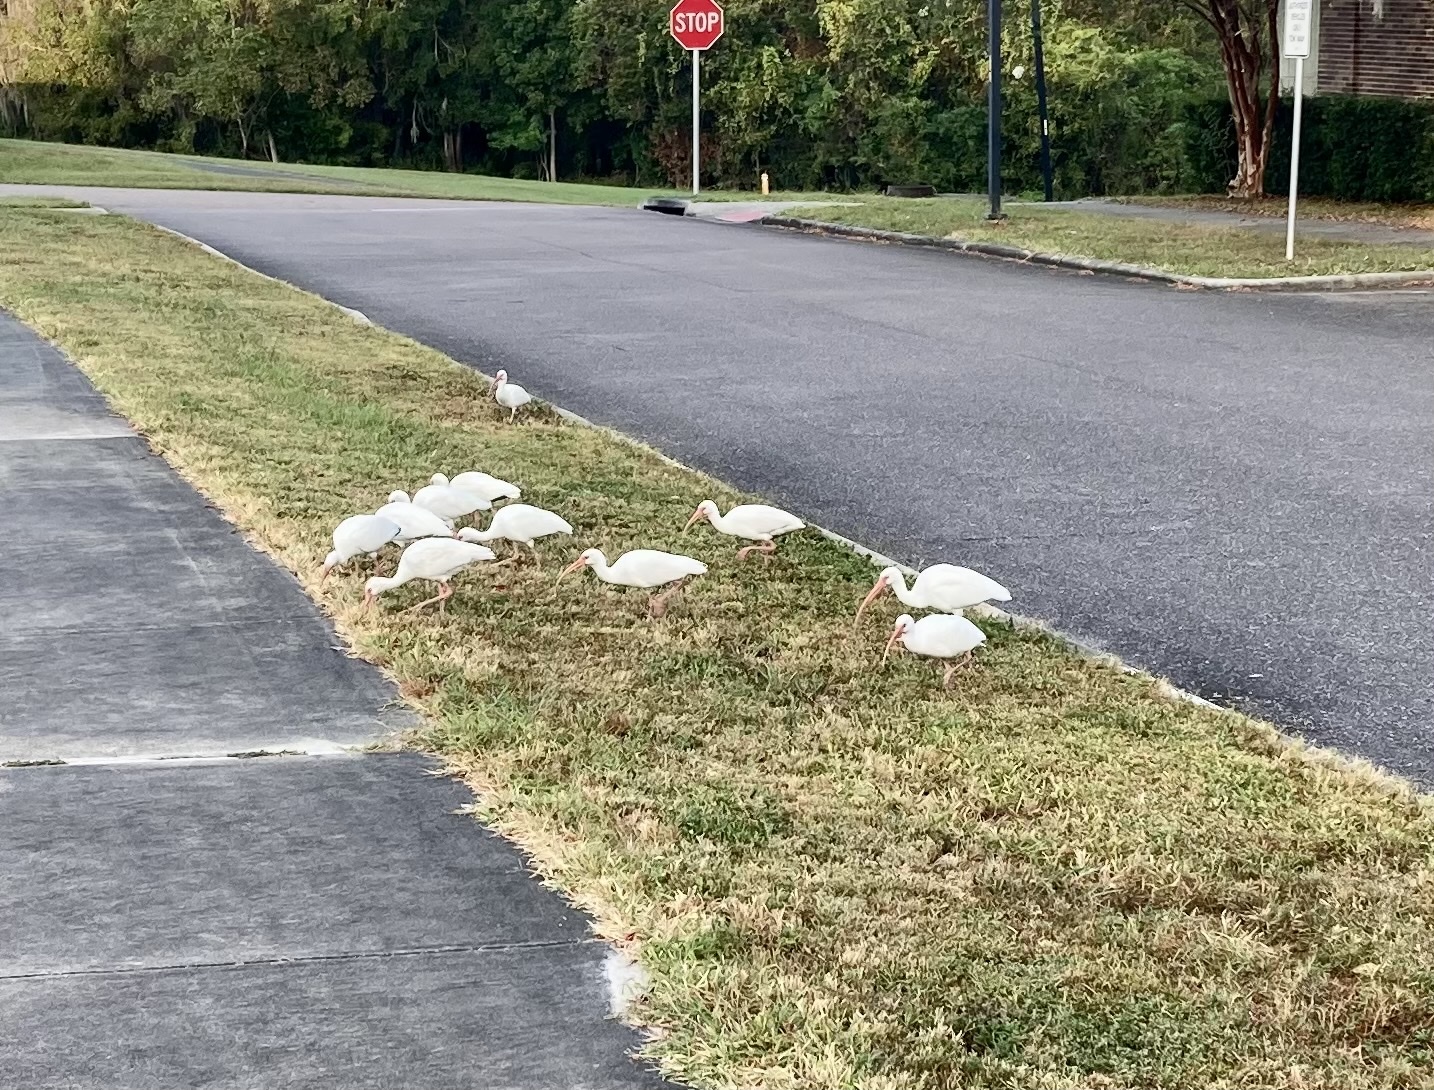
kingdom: Animalia
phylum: Chordata
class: Aves
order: Pelecaniformes
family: Threskiornithidae
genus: Eudocimus
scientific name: Eudocimus albus
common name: White ibis
